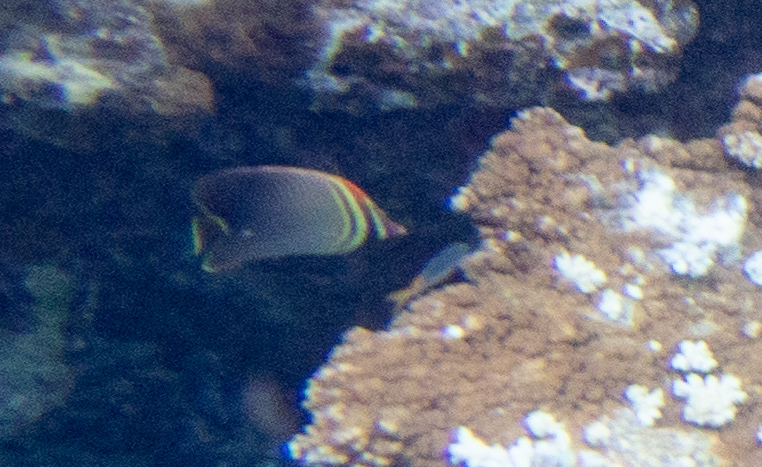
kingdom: Animalia
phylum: Chordata
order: Perciformes
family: Chaetodontidae
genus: Chaetodon
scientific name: Chaetodon baronessa
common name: Triangular butterflyfish
